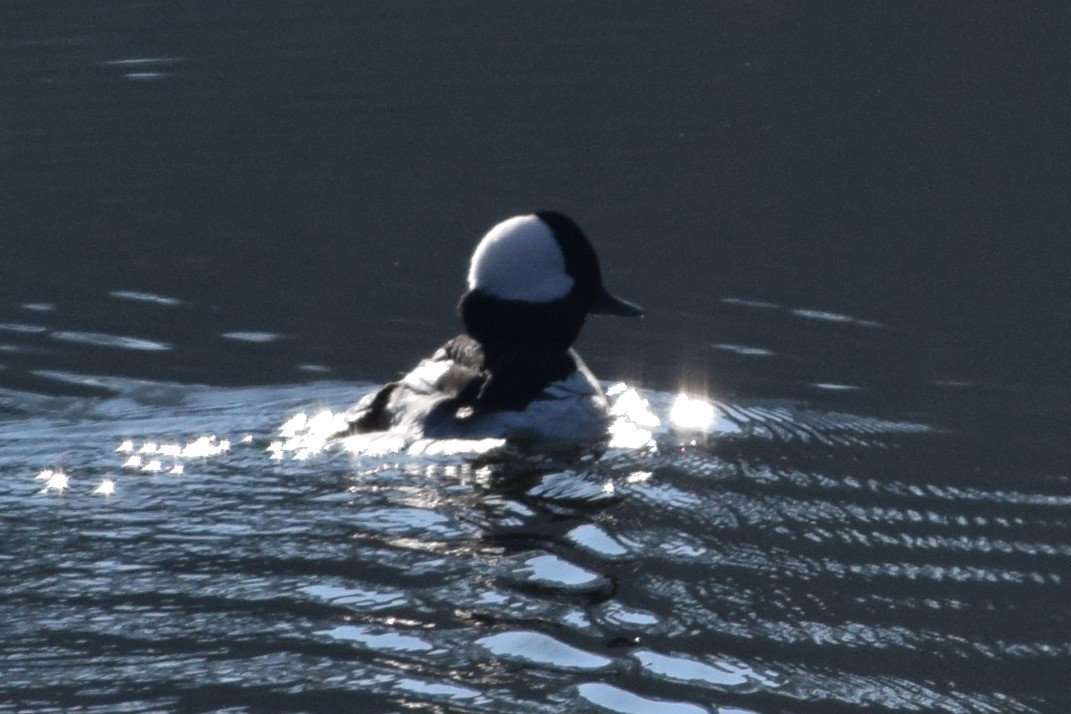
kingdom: Animalia
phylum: Chordata
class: Aves
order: Anseriformes
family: Anatidae
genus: Bucephala
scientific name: Bucephala albeola
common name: Bufflehead
